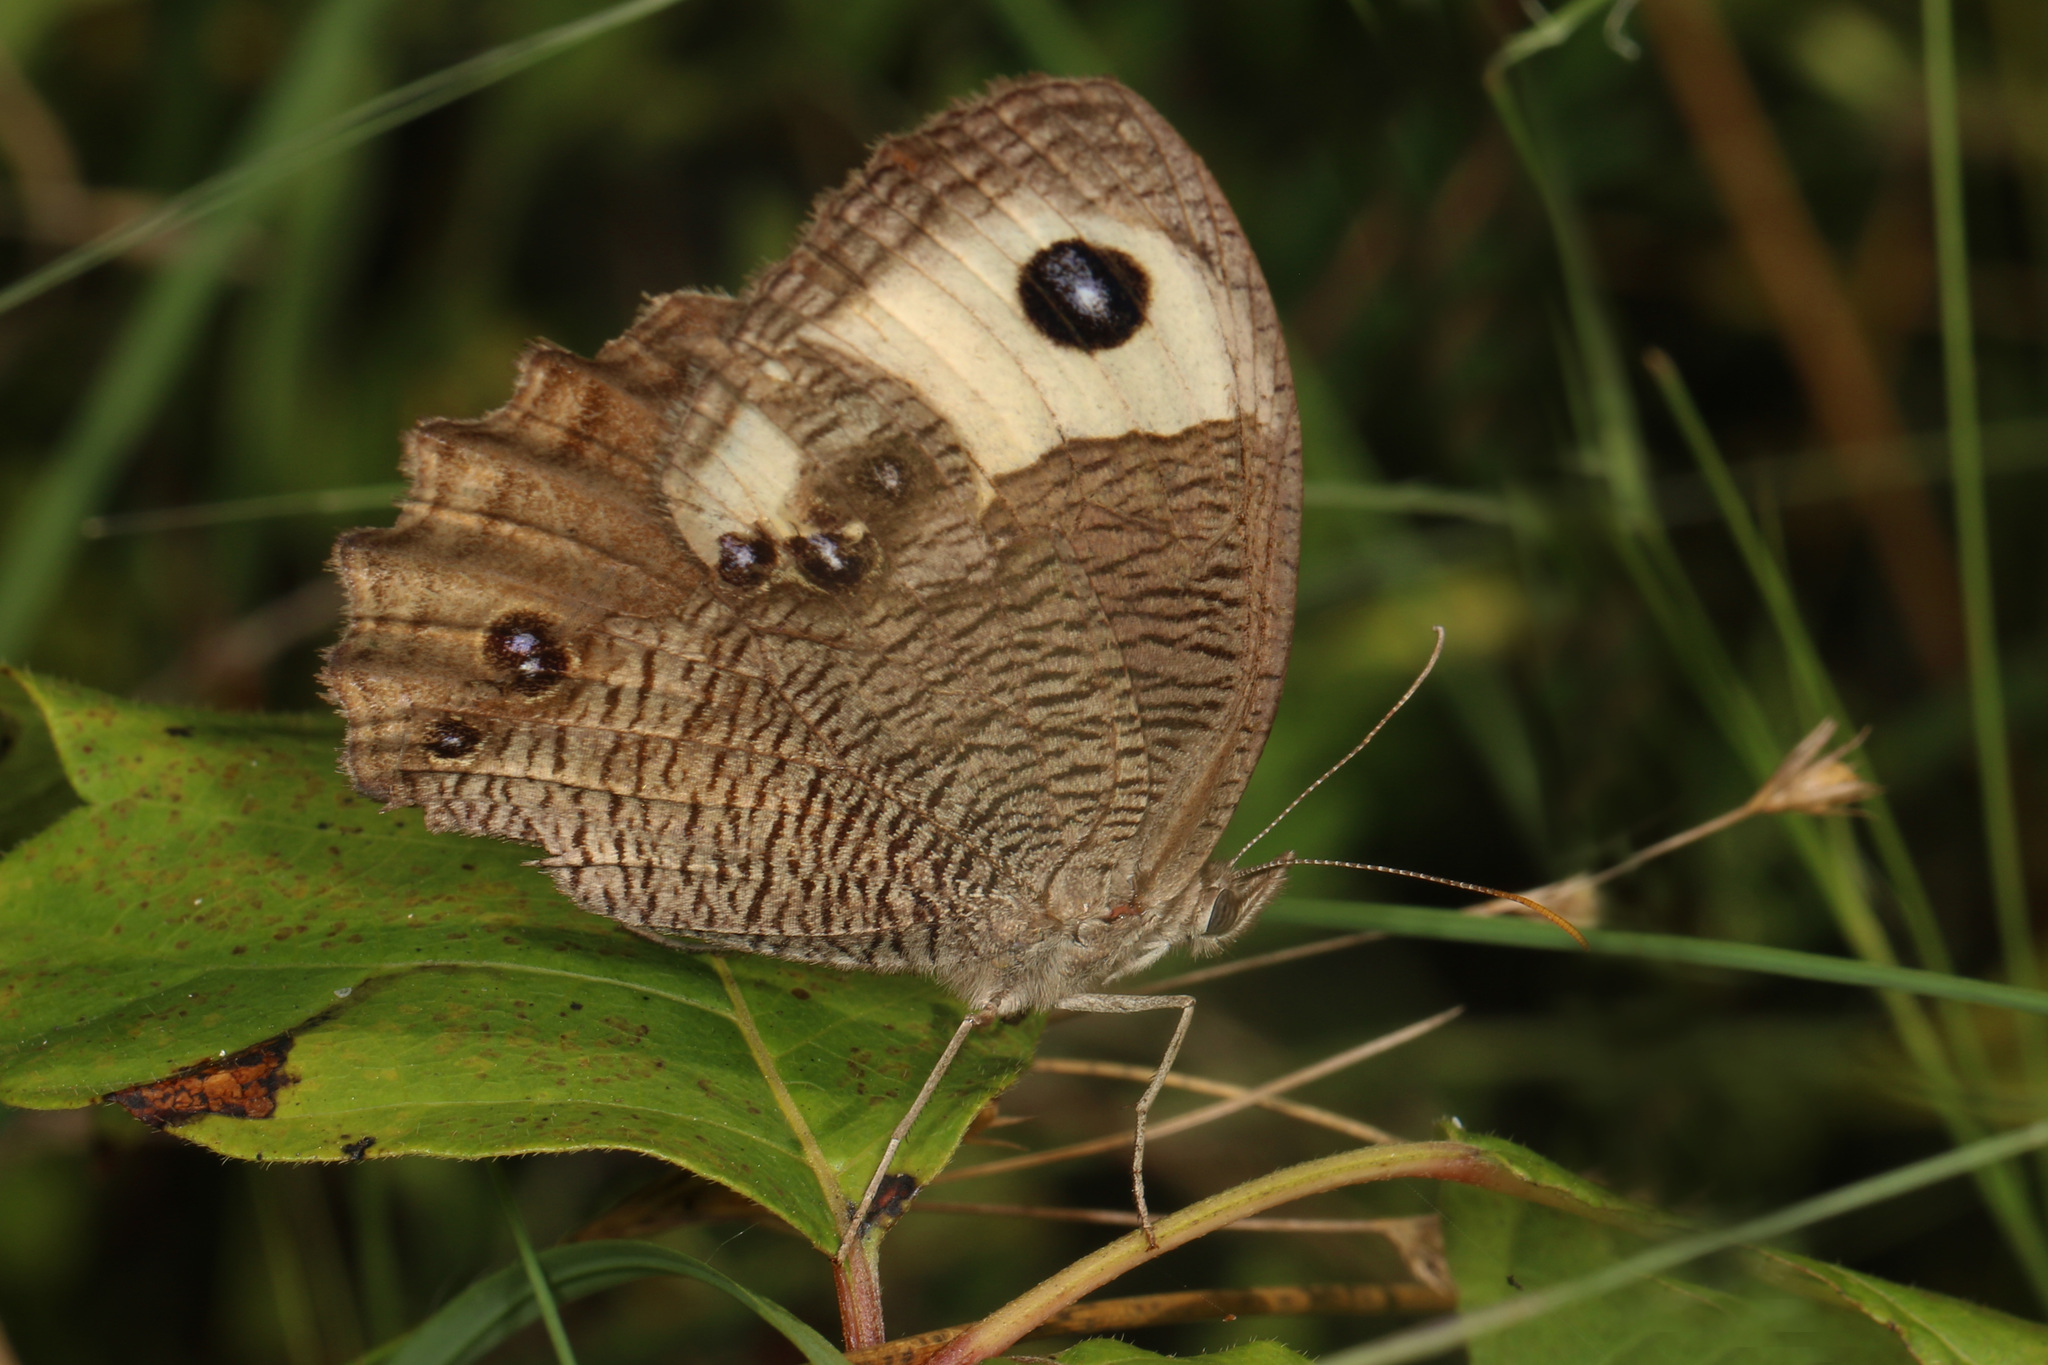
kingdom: Animalia
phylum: Arthropoda
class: Insecta
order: Lepidoptera
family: Nymphalidae
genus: Cercyonis
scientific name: Cercyonis pegala
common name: Common wood-nymph
